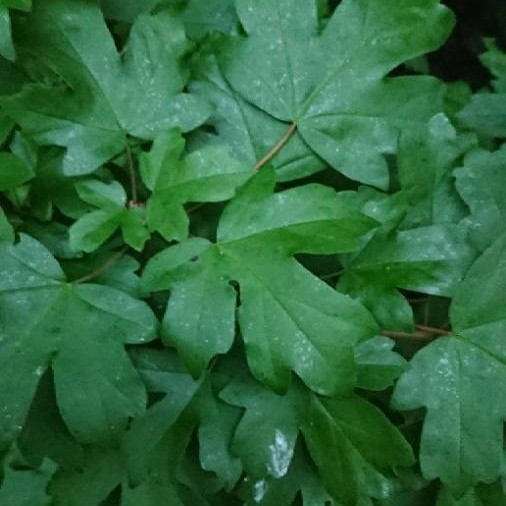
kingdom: Plantae
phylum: Tracheophyta
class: Magnoliopsida
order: Sapindales
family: Sapindaceae
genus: Acer
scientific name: Acer campestre
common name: Field maple
